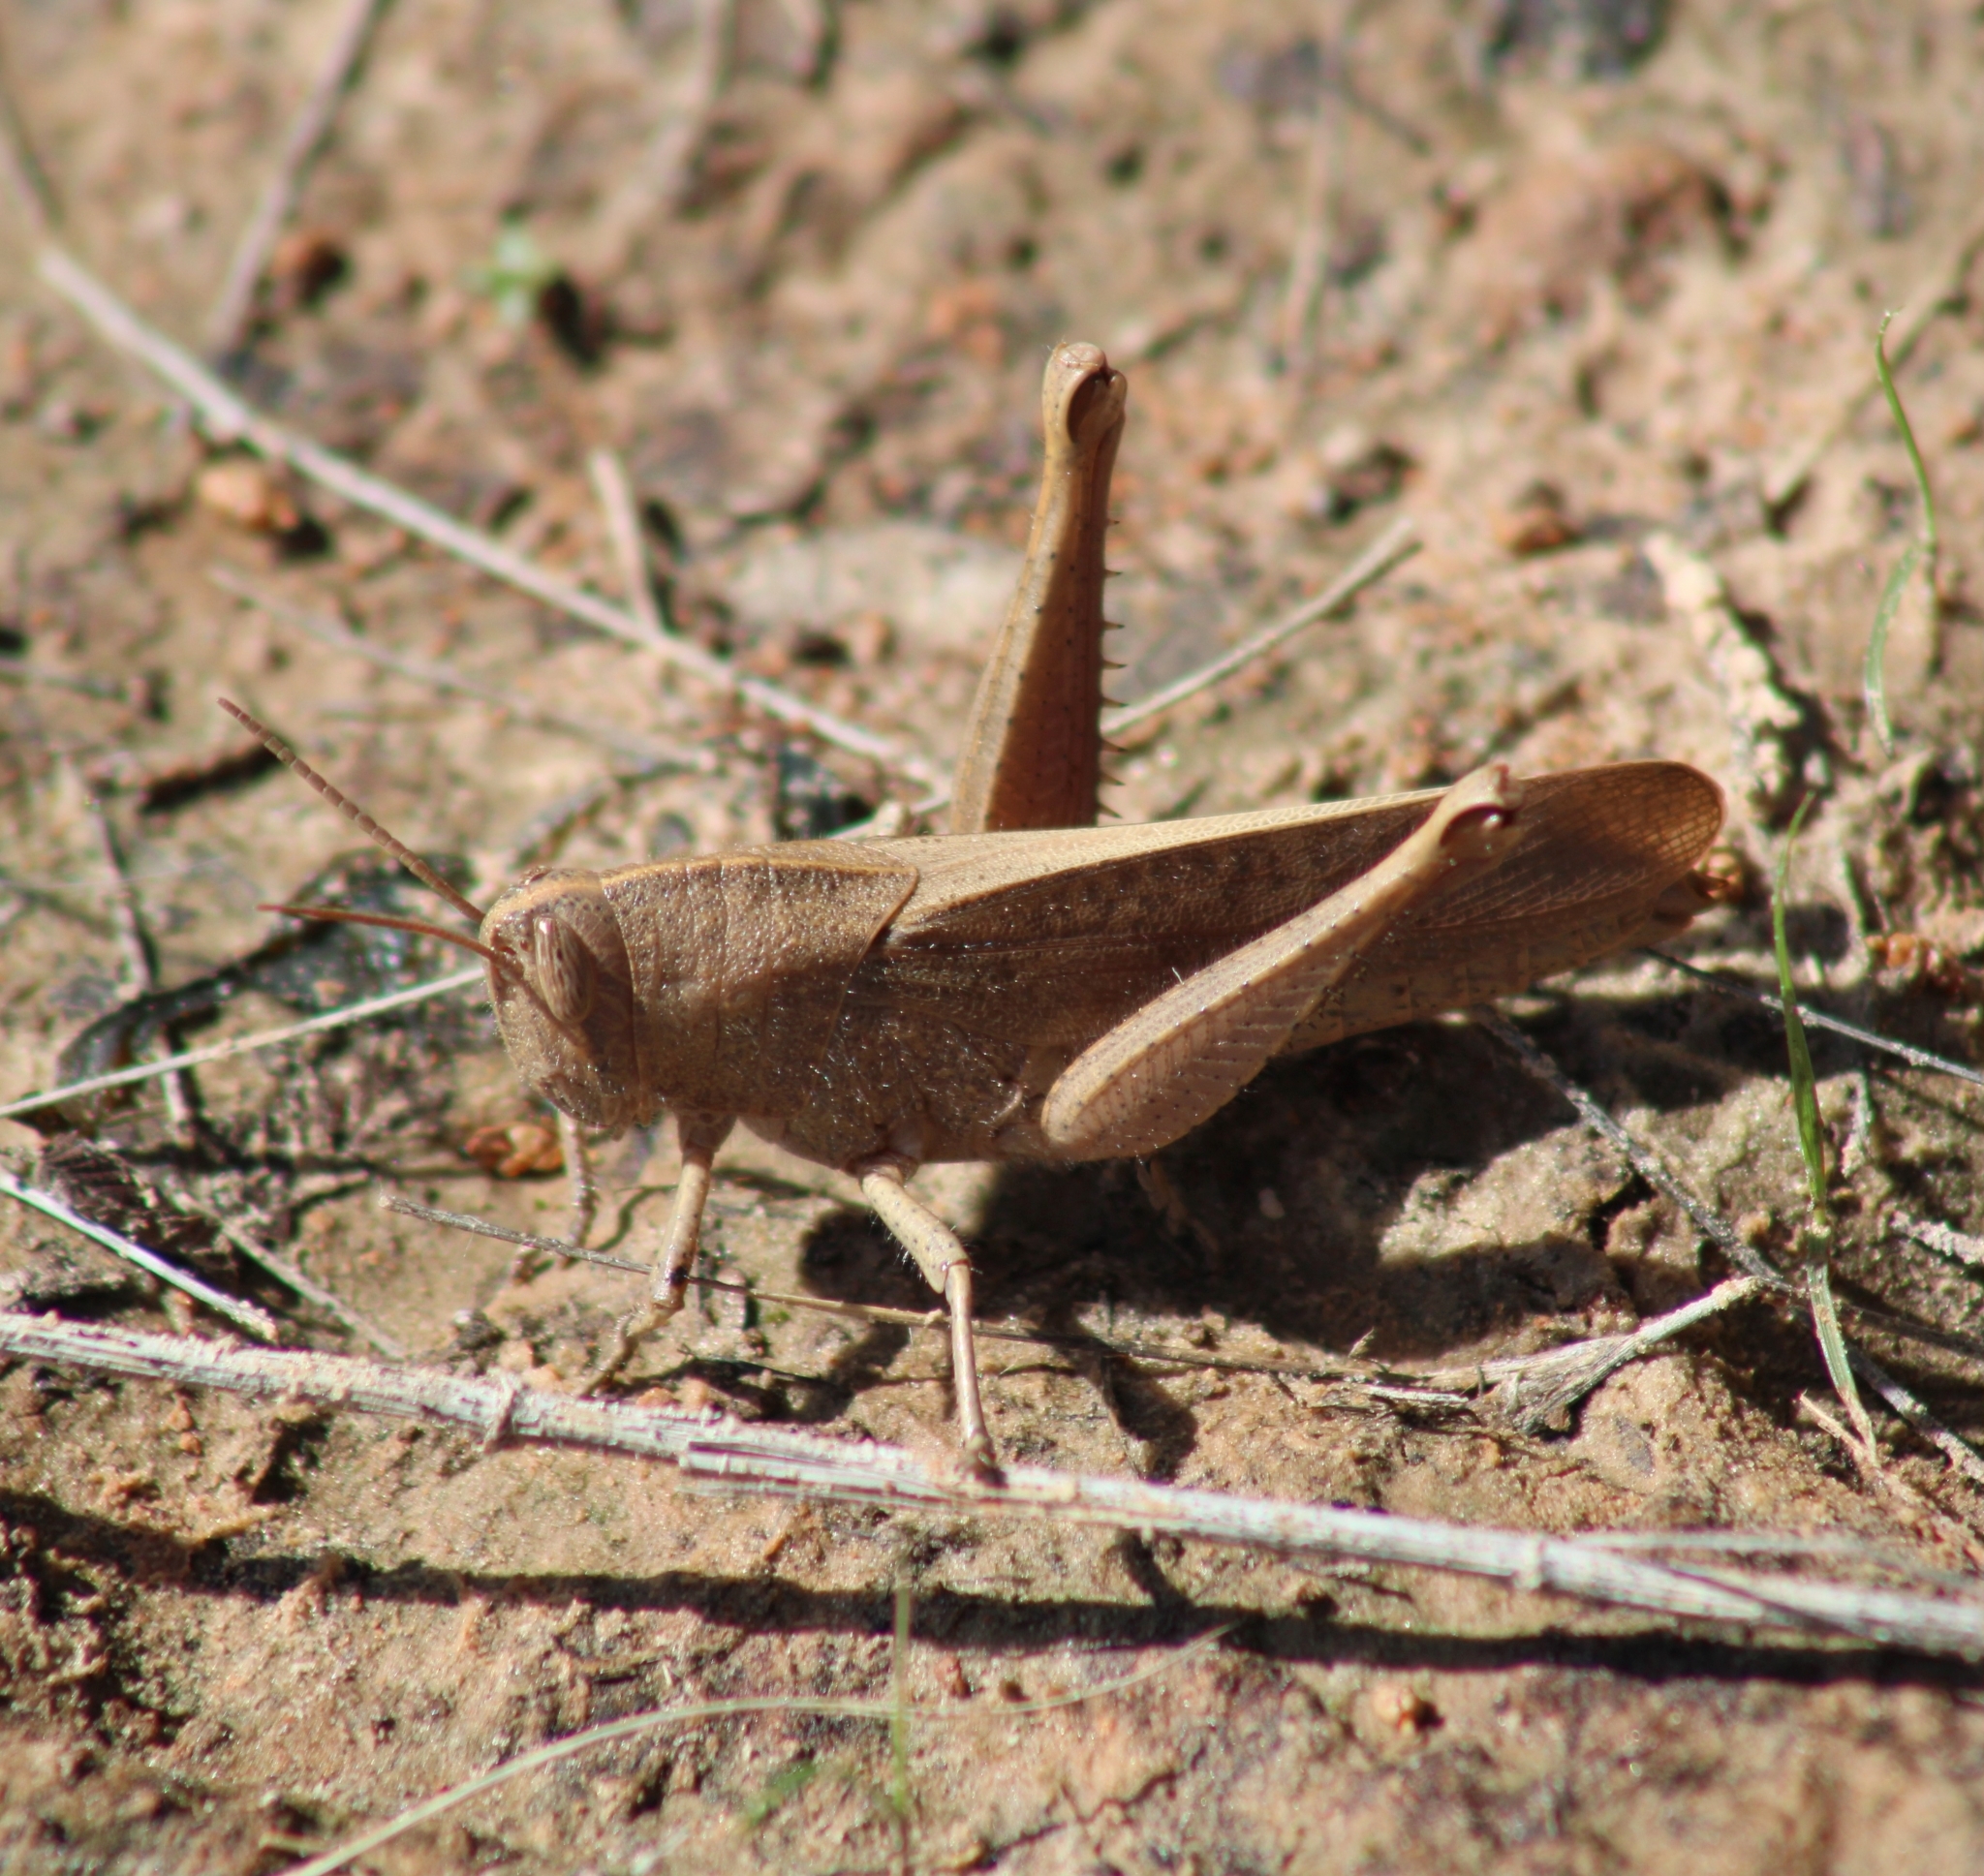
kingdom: Animalia
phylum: Arthropoda
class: Insecta
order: Orthoptera
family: Acrididae
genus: Schistocerca
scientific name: Schistocerca damnifica
